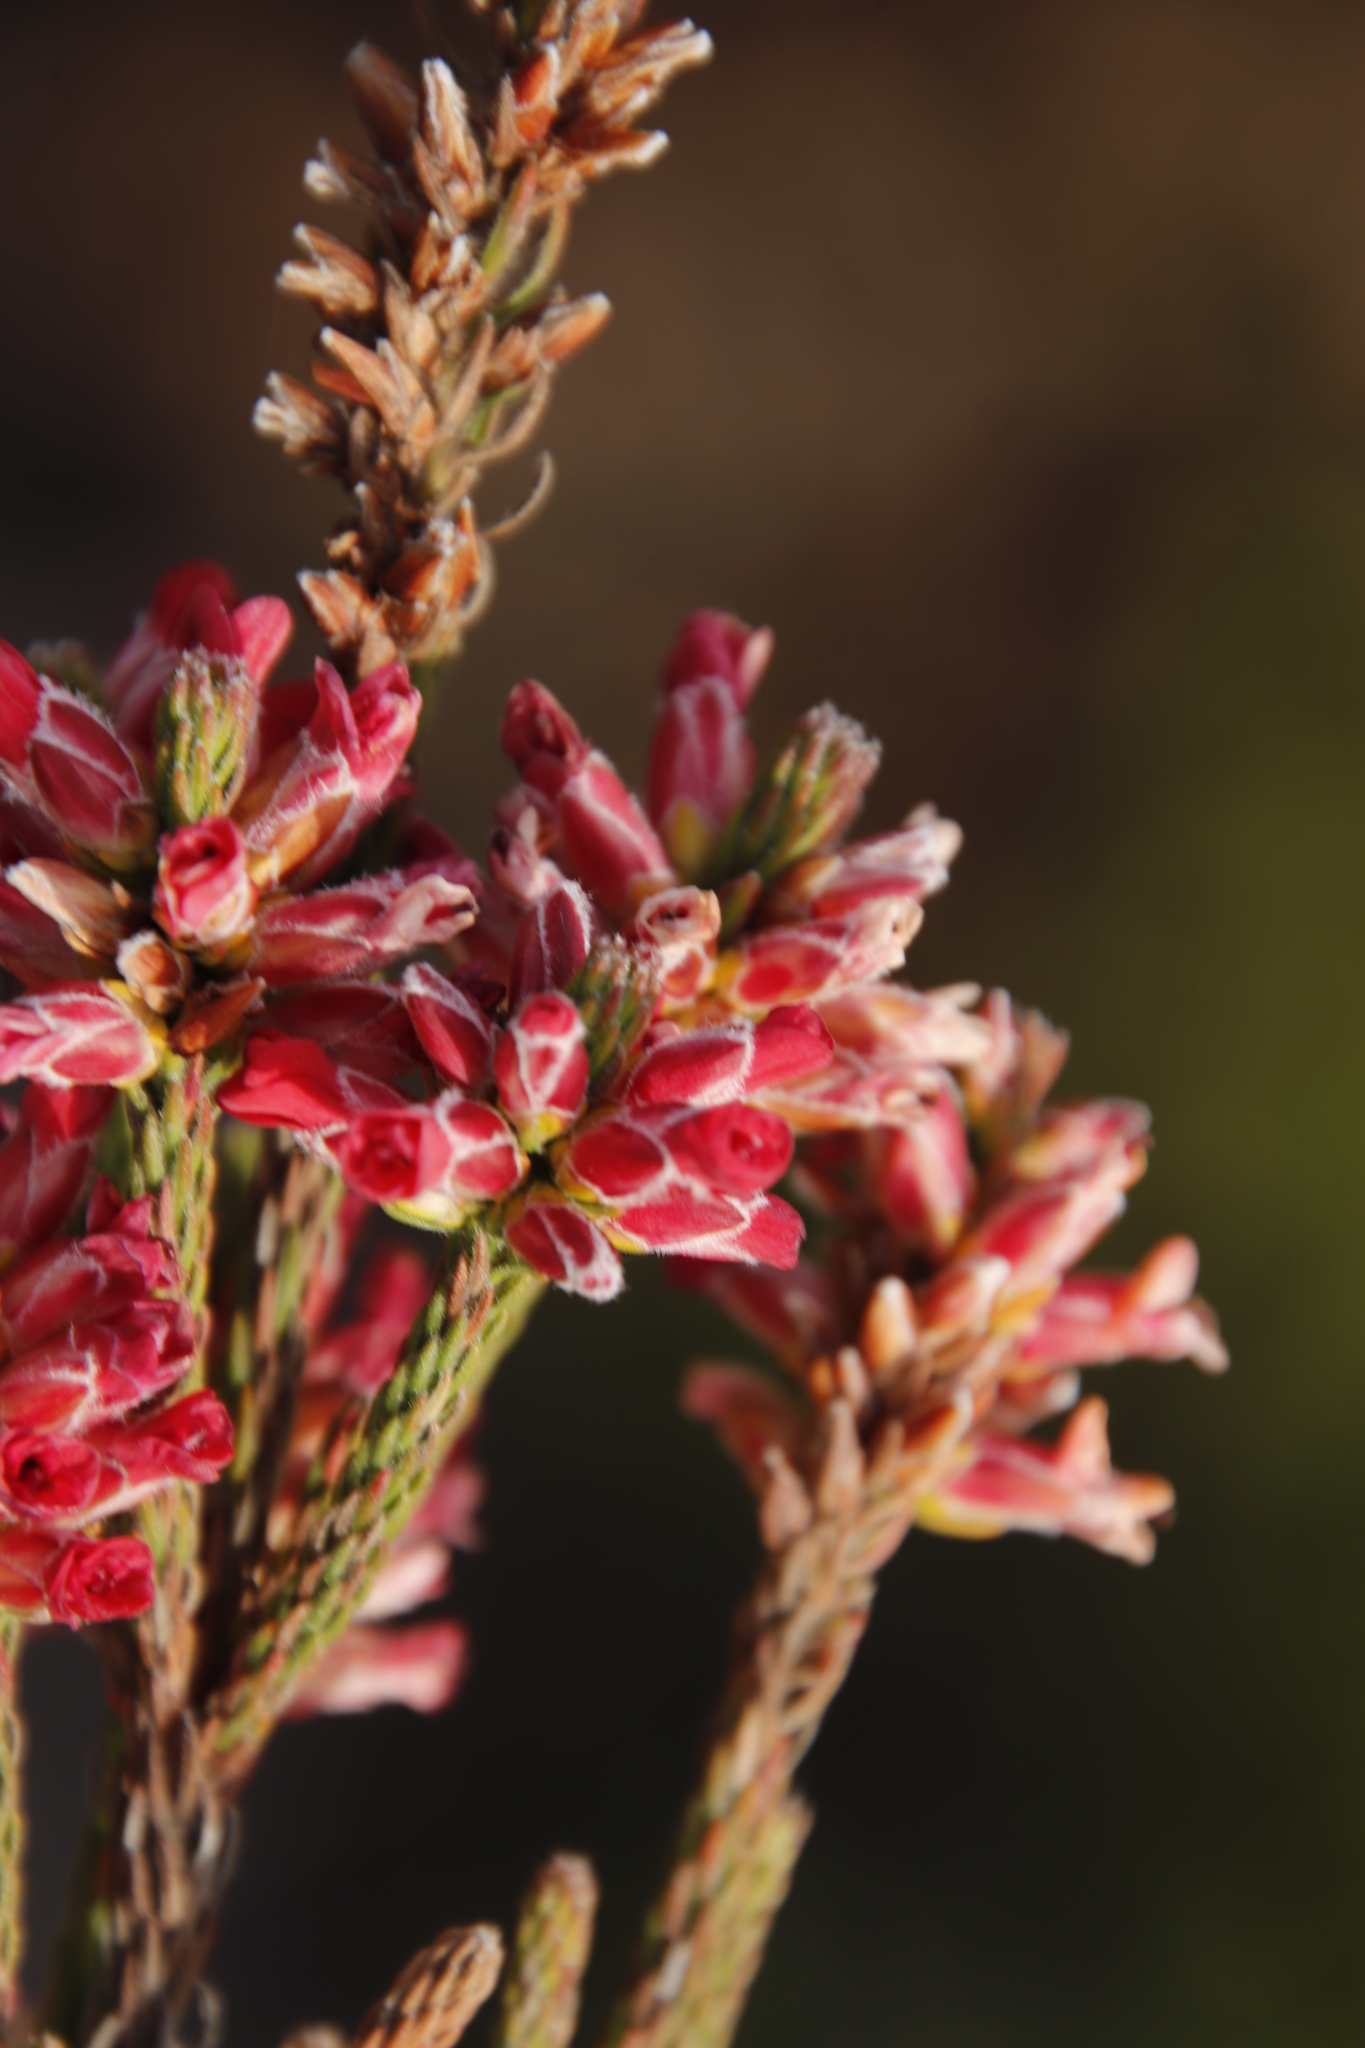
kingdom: Plantae
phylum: Tracheophyta
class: Magnoliopsida
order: Bruniales
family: Bruniaceae
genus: Audouinia
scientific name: Audouinia capitata
